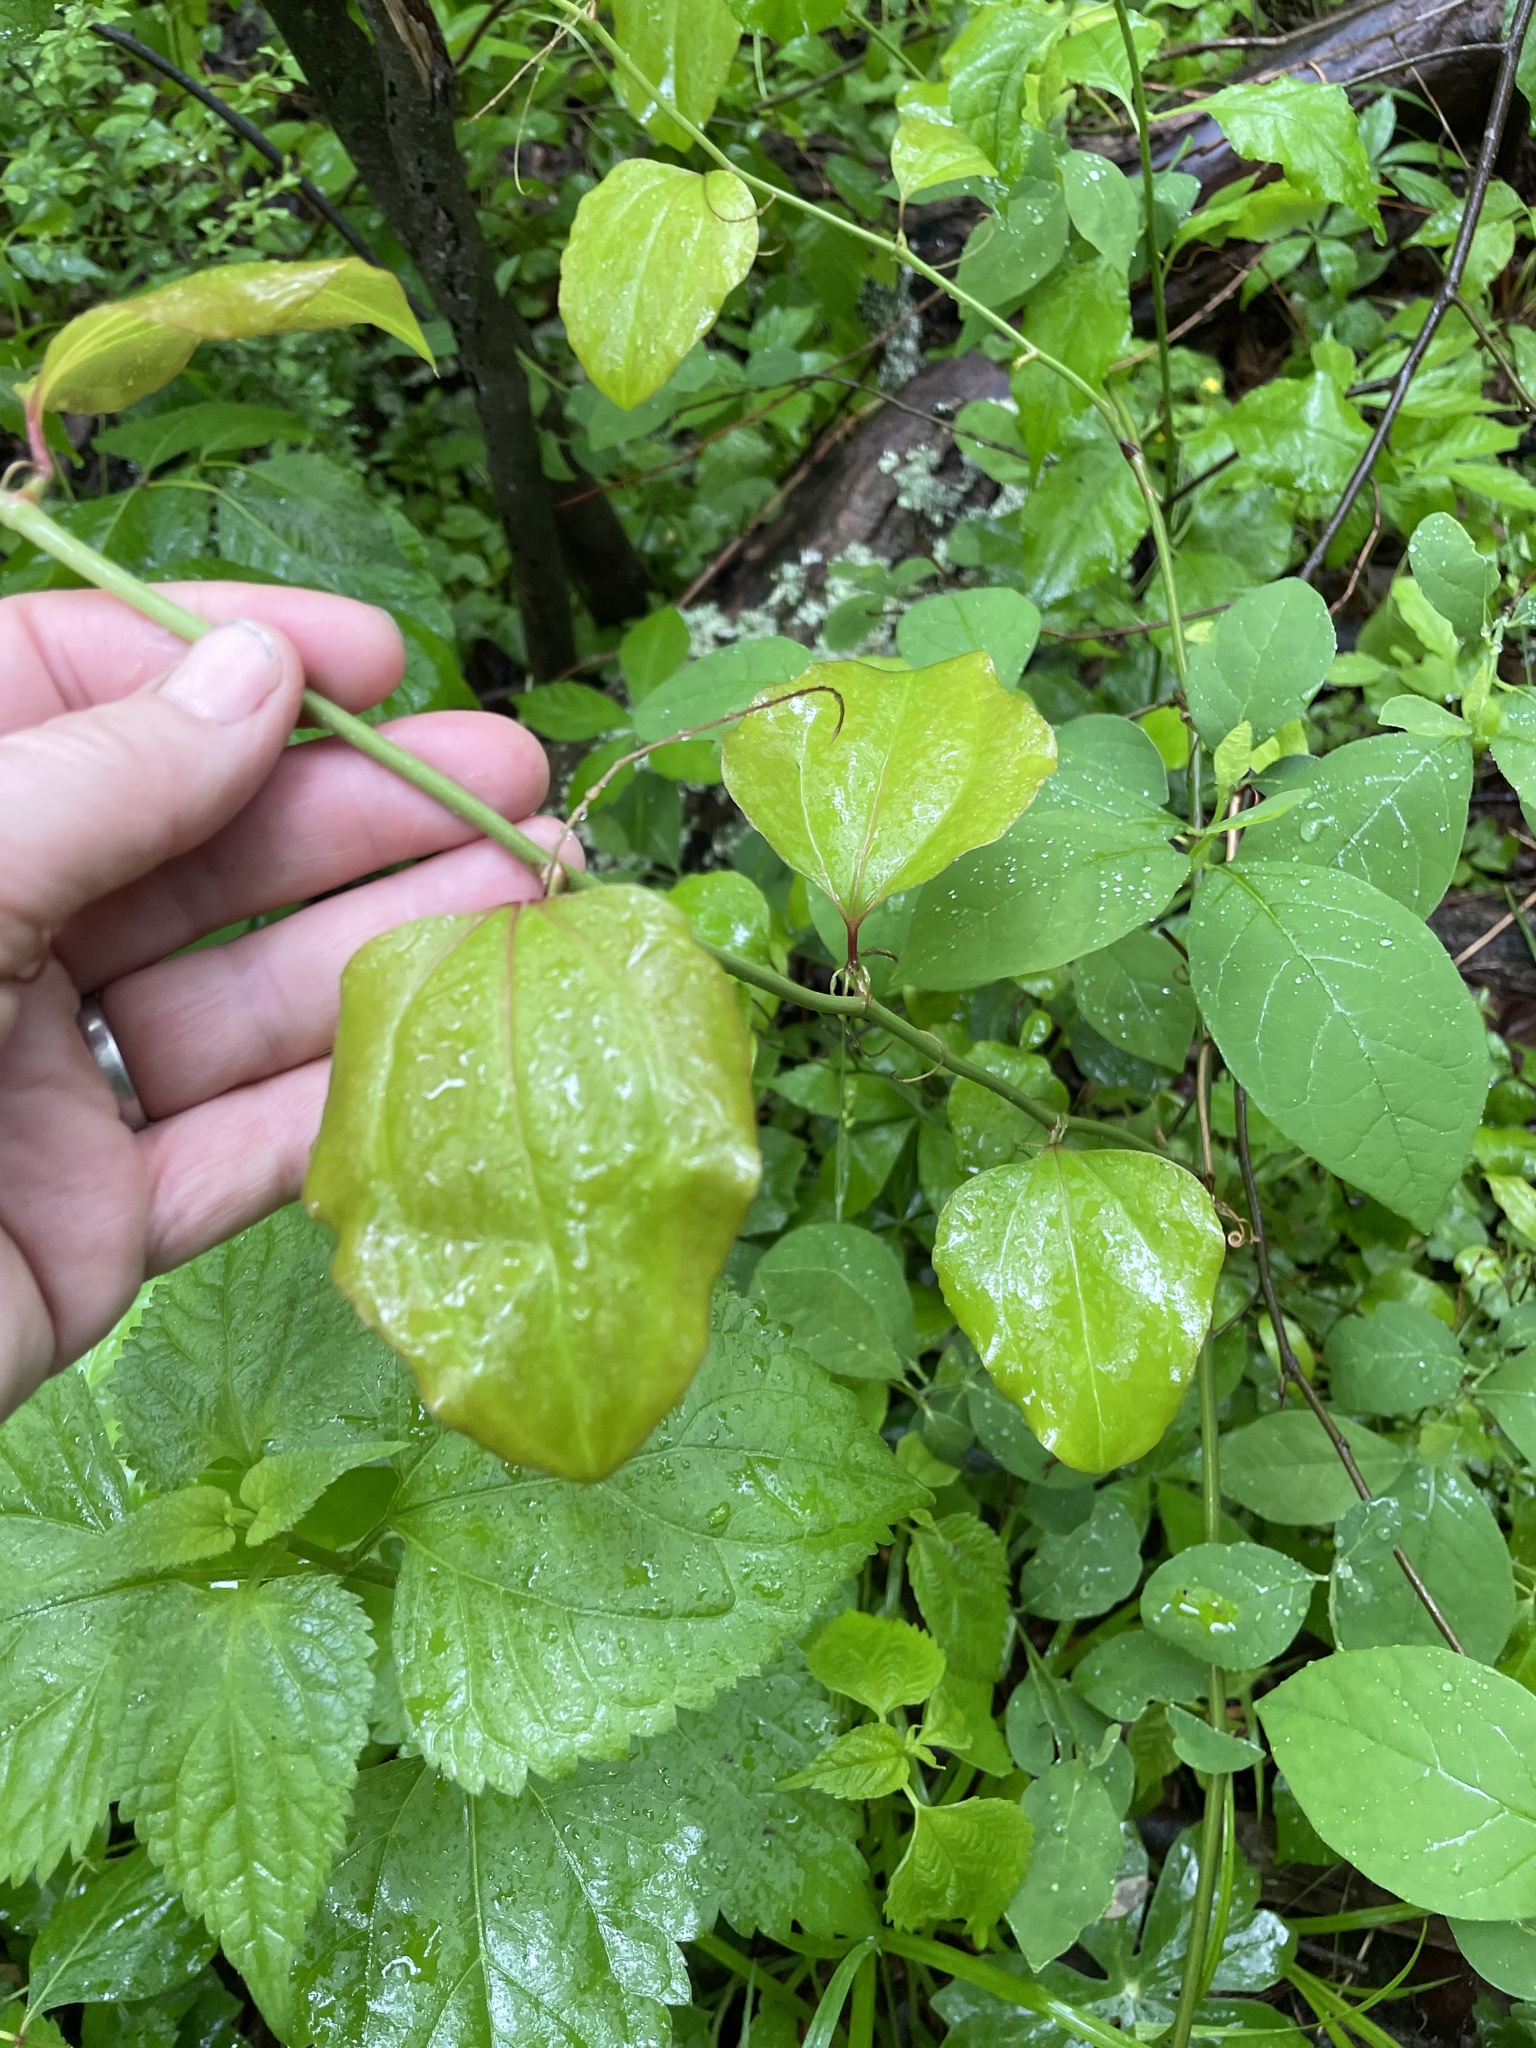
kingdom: Plantae
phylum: Tracheophyta
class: Liliopsida
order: Liliales
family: Smilacaceae
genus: Smilax
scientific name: Smilax rotundifolia
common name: Bullbriar
